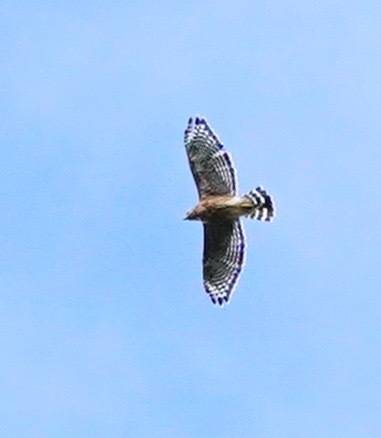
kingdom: Animalia
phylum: Chordata
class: Aves
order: Accipitriformes
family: Accipitridae
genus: Buteo
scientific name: Buteo lineatus
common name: Red-shouldered hawk
